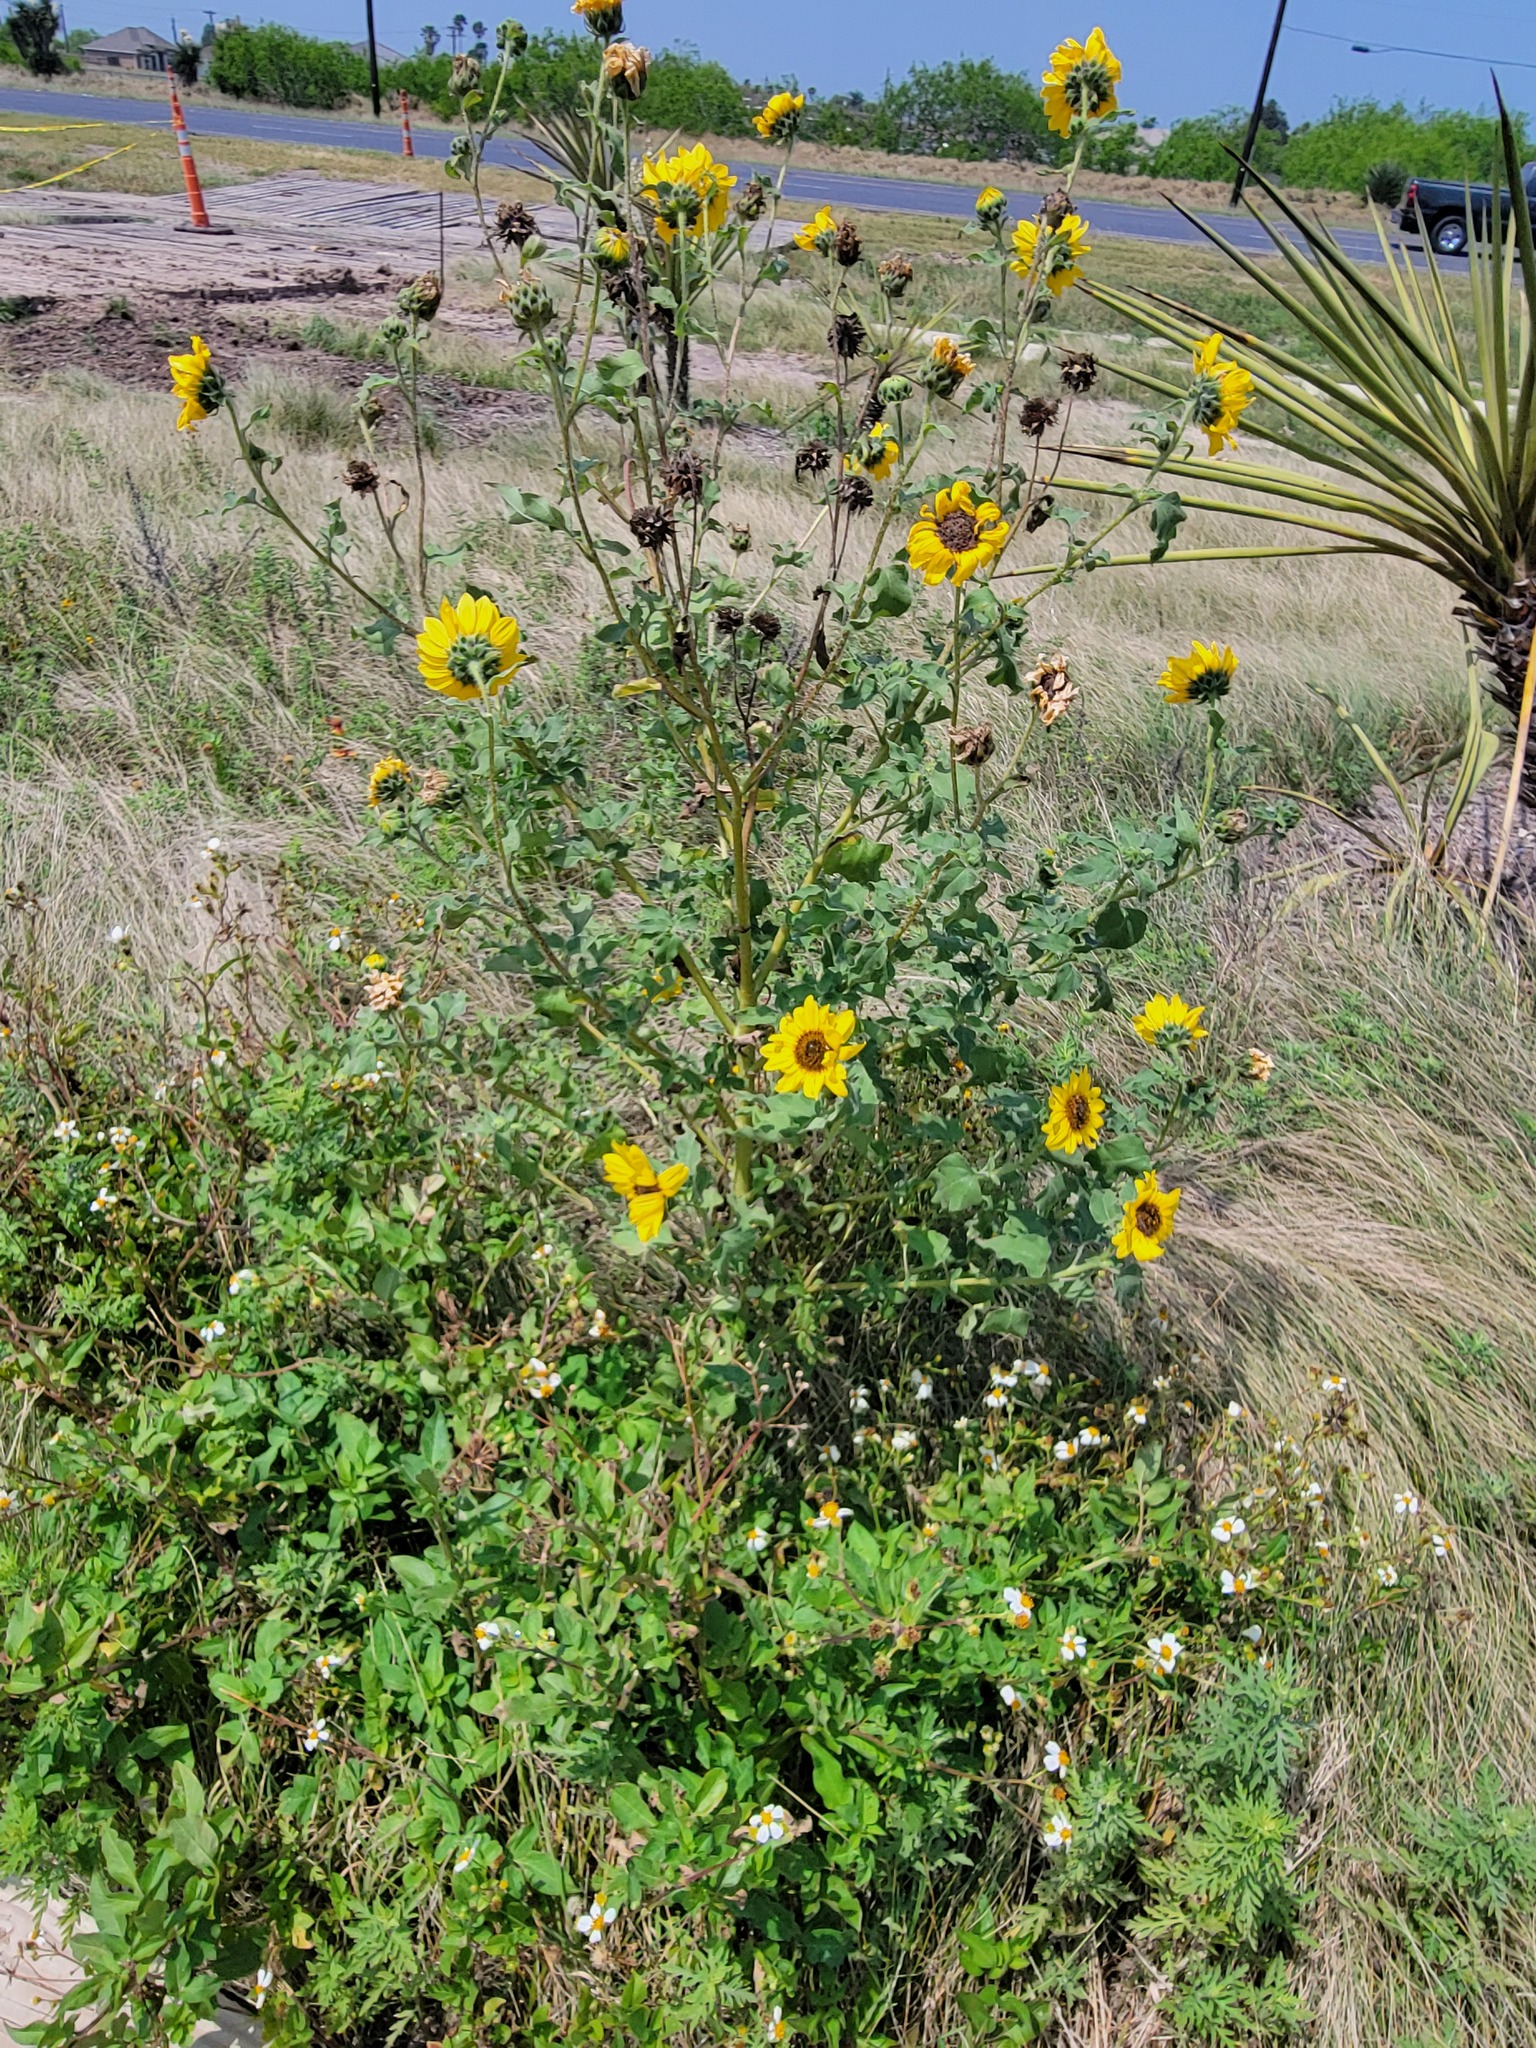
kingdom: Plantae
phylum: Tracheophyta
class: Magnoliopsida
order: Asterales
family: Asteraceae
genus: Helianthus
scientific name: Helianthus annuus
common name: Sunflower
